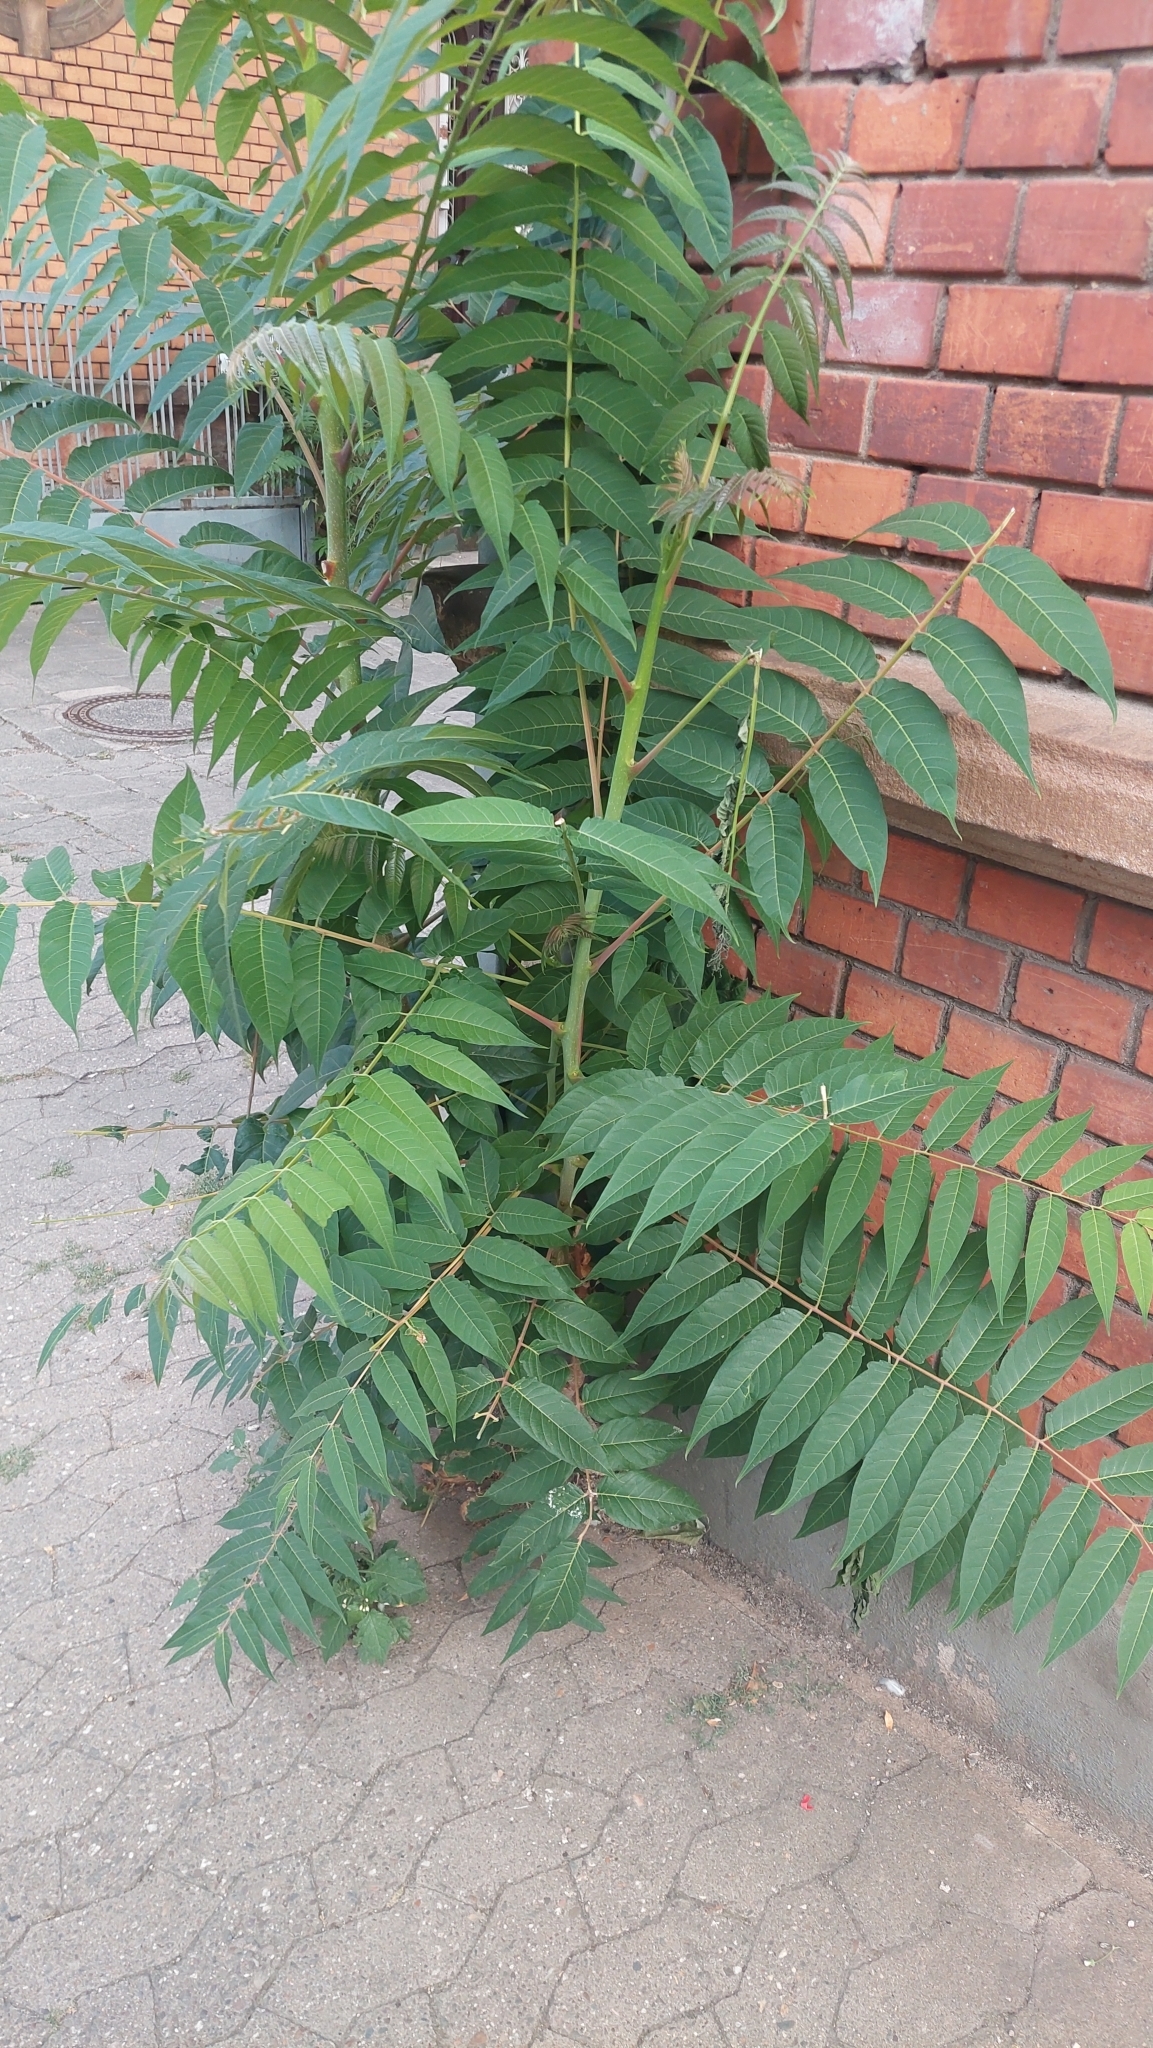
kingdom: Plantae
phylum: Tracheophyta
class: Magnoliopsida
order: Sapindales
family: Simaroubaceae
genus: Ailanthus
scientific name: Ailanthus altissima
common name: Tree-of-heaven
